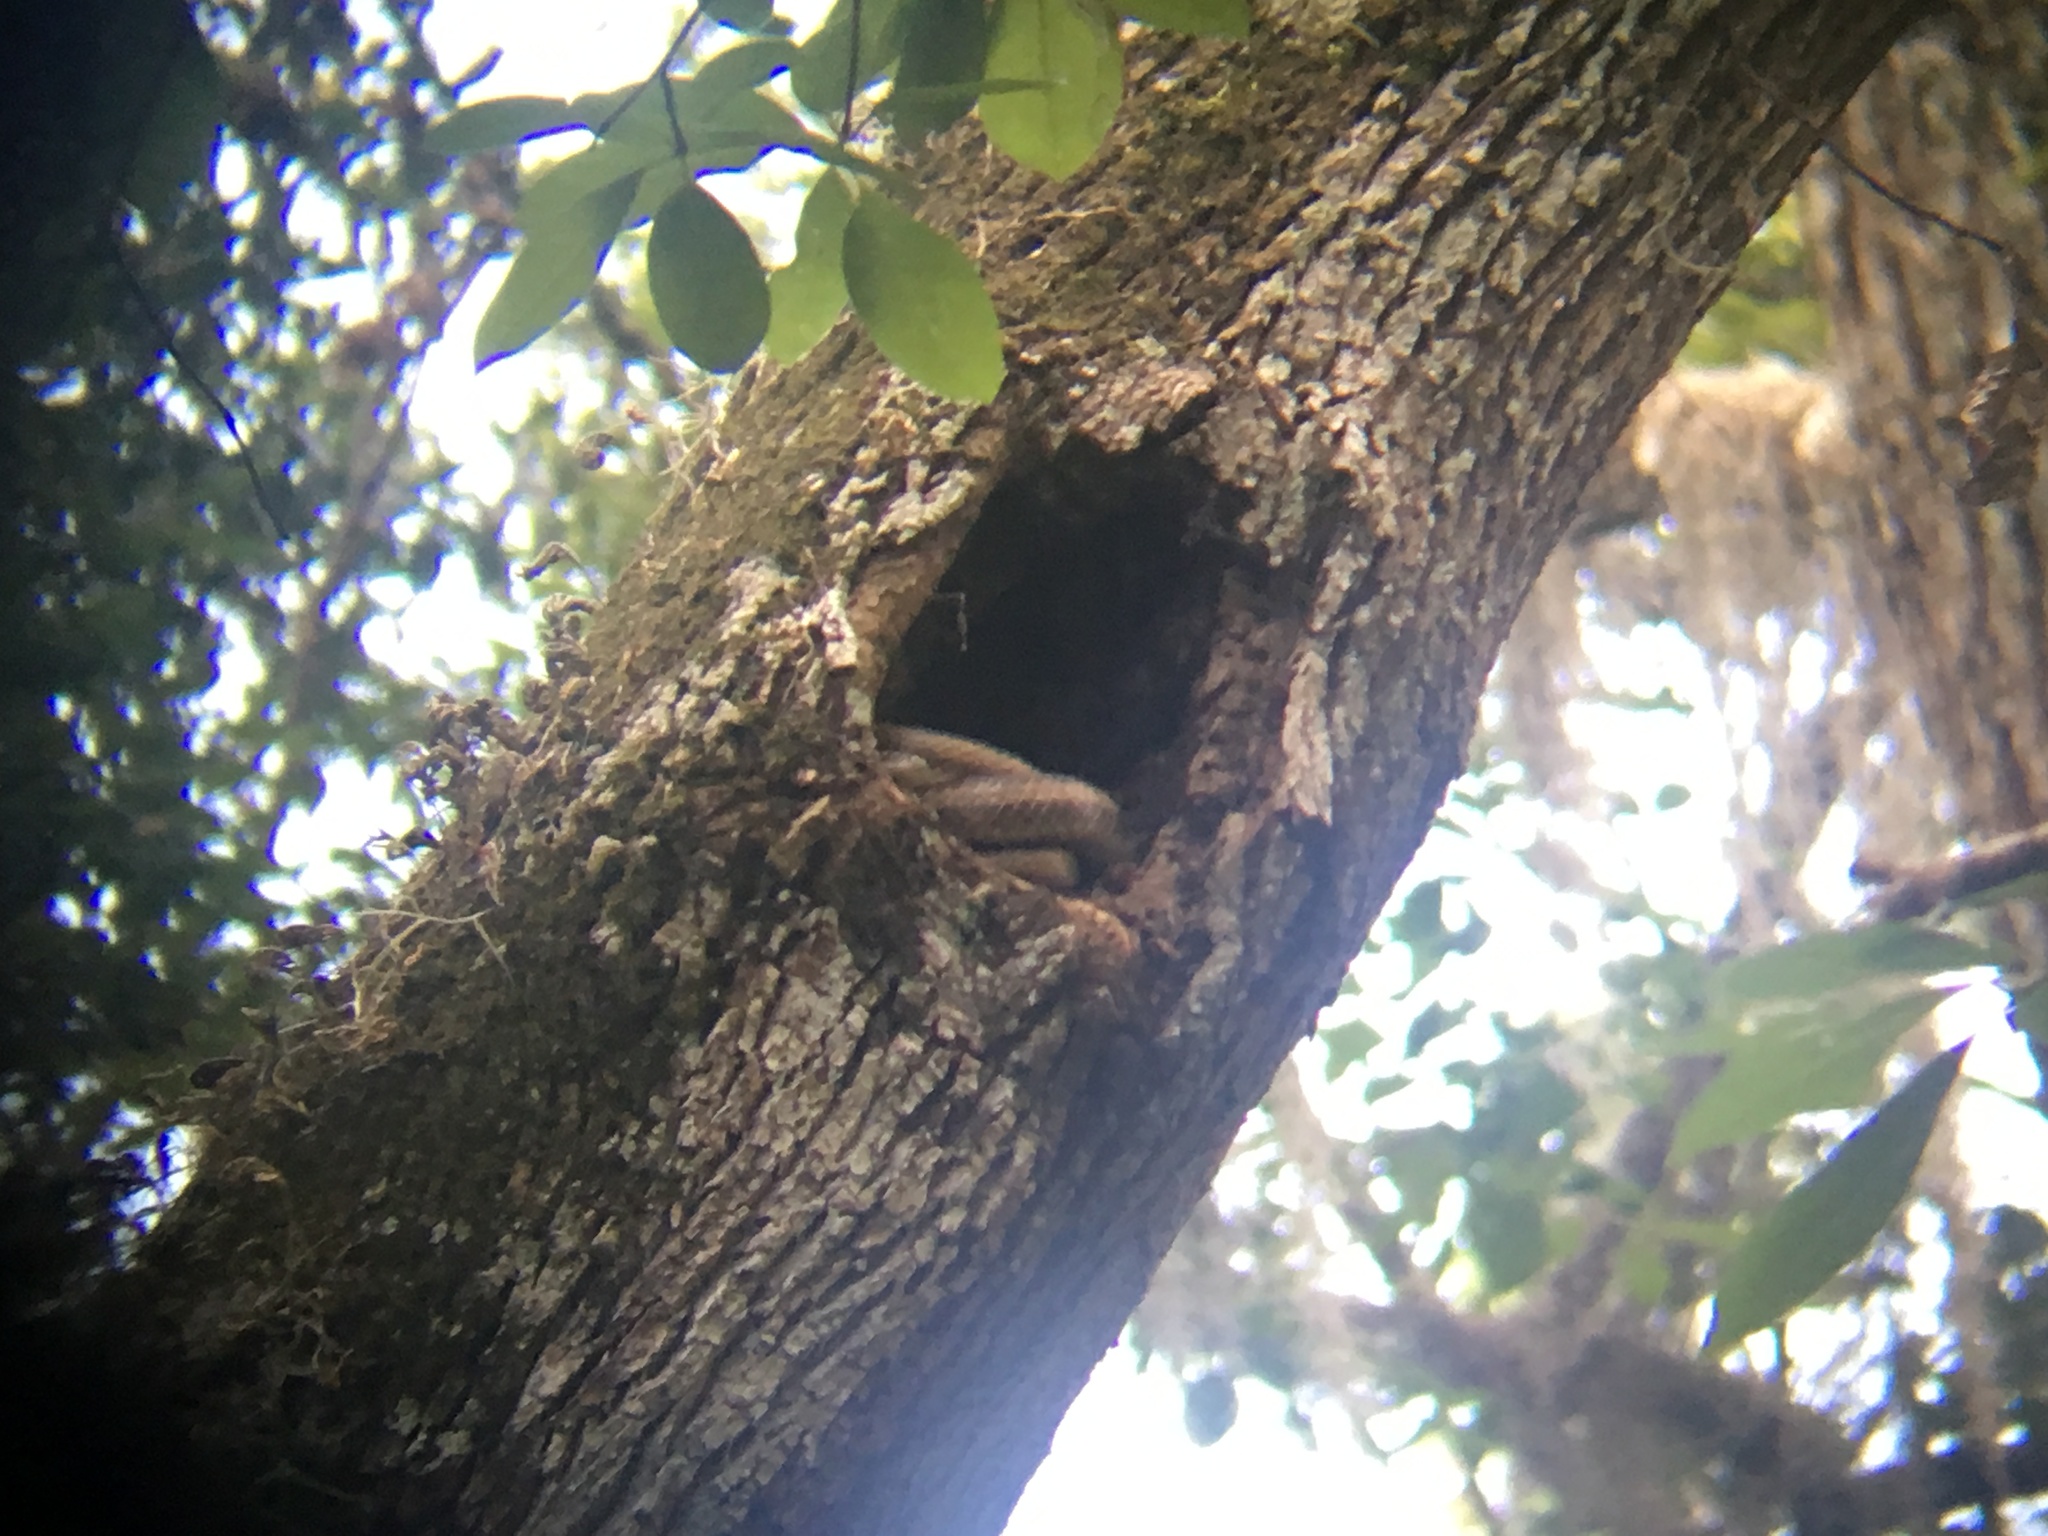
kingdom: Animalia
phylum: Chordata
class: Squamata
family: Colubridae
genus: Pantherophis
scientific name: Pantherophis alleghaniensis
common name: Eastern rat snake
